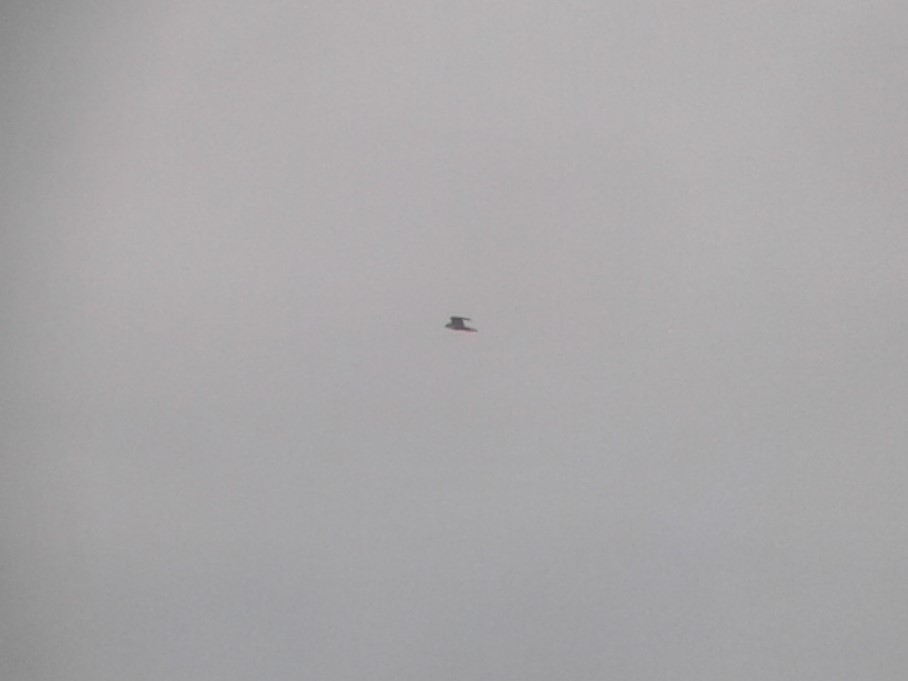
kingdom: Animalia
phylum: Chordata
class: Aves
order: Falconiformes
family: Falconidae
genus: Falco
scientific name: Falco peregrinus
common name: Peregrine falcon
